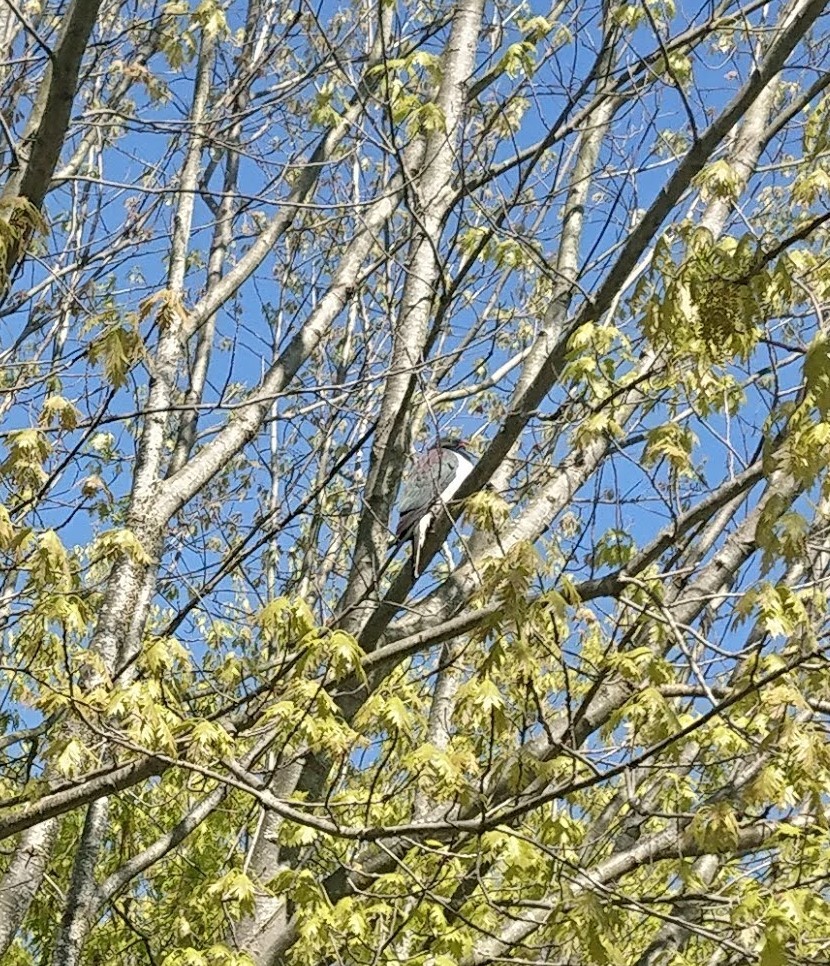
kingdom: Animalia
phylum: Chordata
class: Aves
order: Columbiformes
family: Columbidae
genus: Hemiphaga
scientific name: Hemiphaga novaeseelandiae
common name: New zealand pigeon
